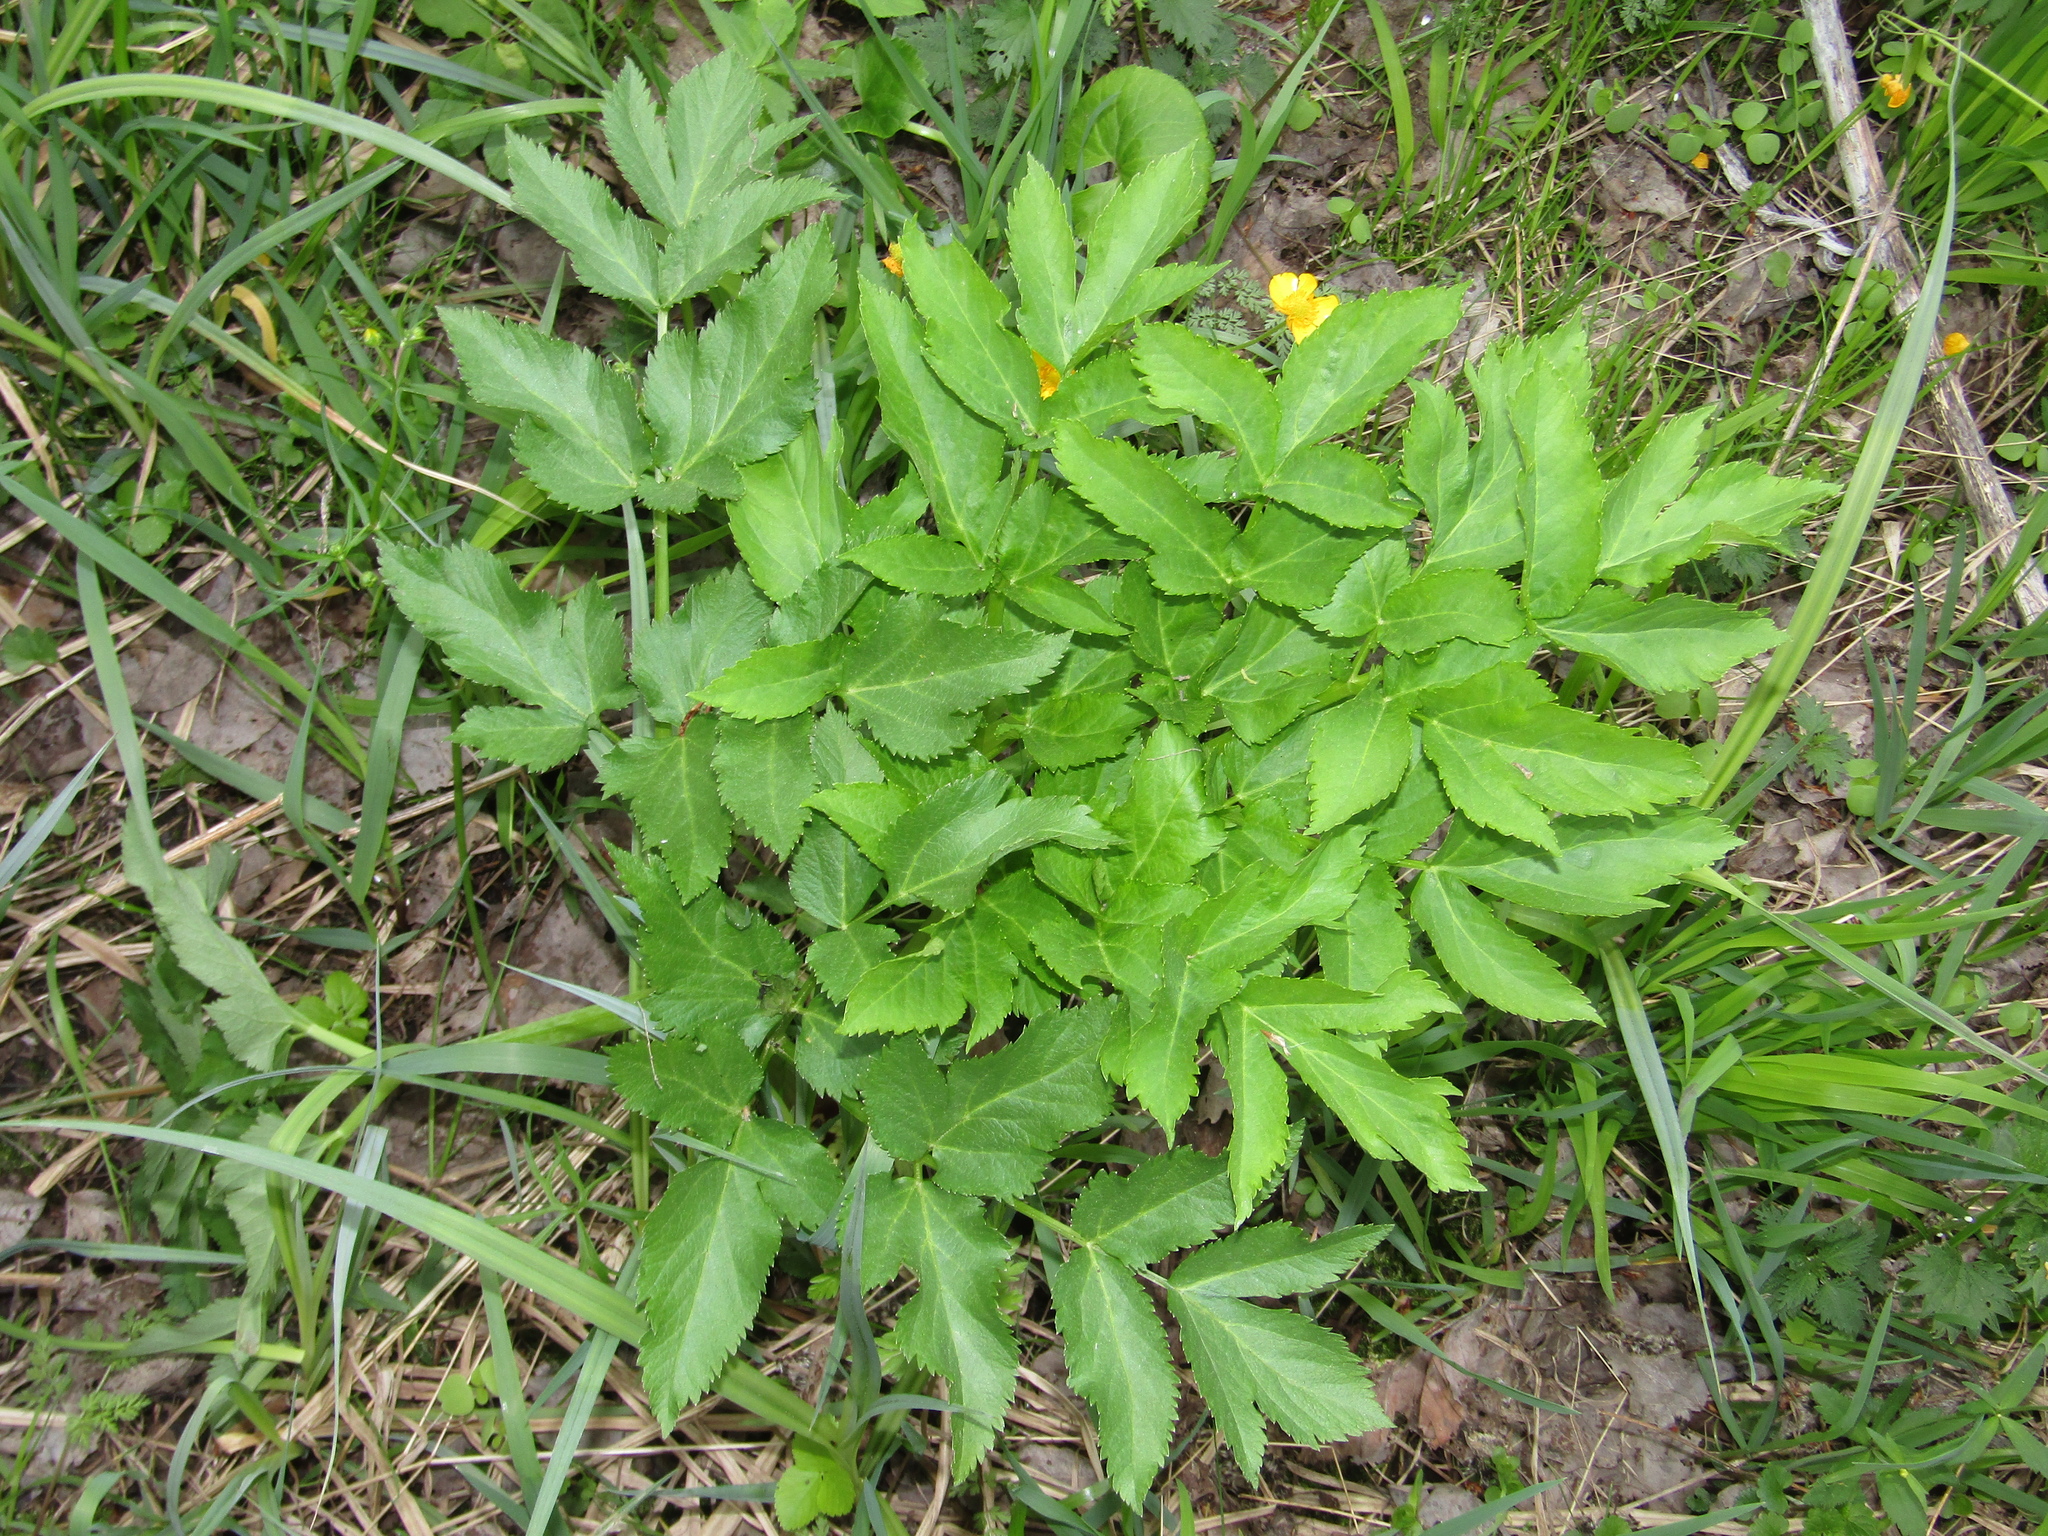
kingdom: Plantae
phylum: Tracheophyta
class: Magnoliopsida
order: Apiales
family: Apiaceae
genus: Angelica
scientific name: Angelica archangelica
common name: Garden angelica
